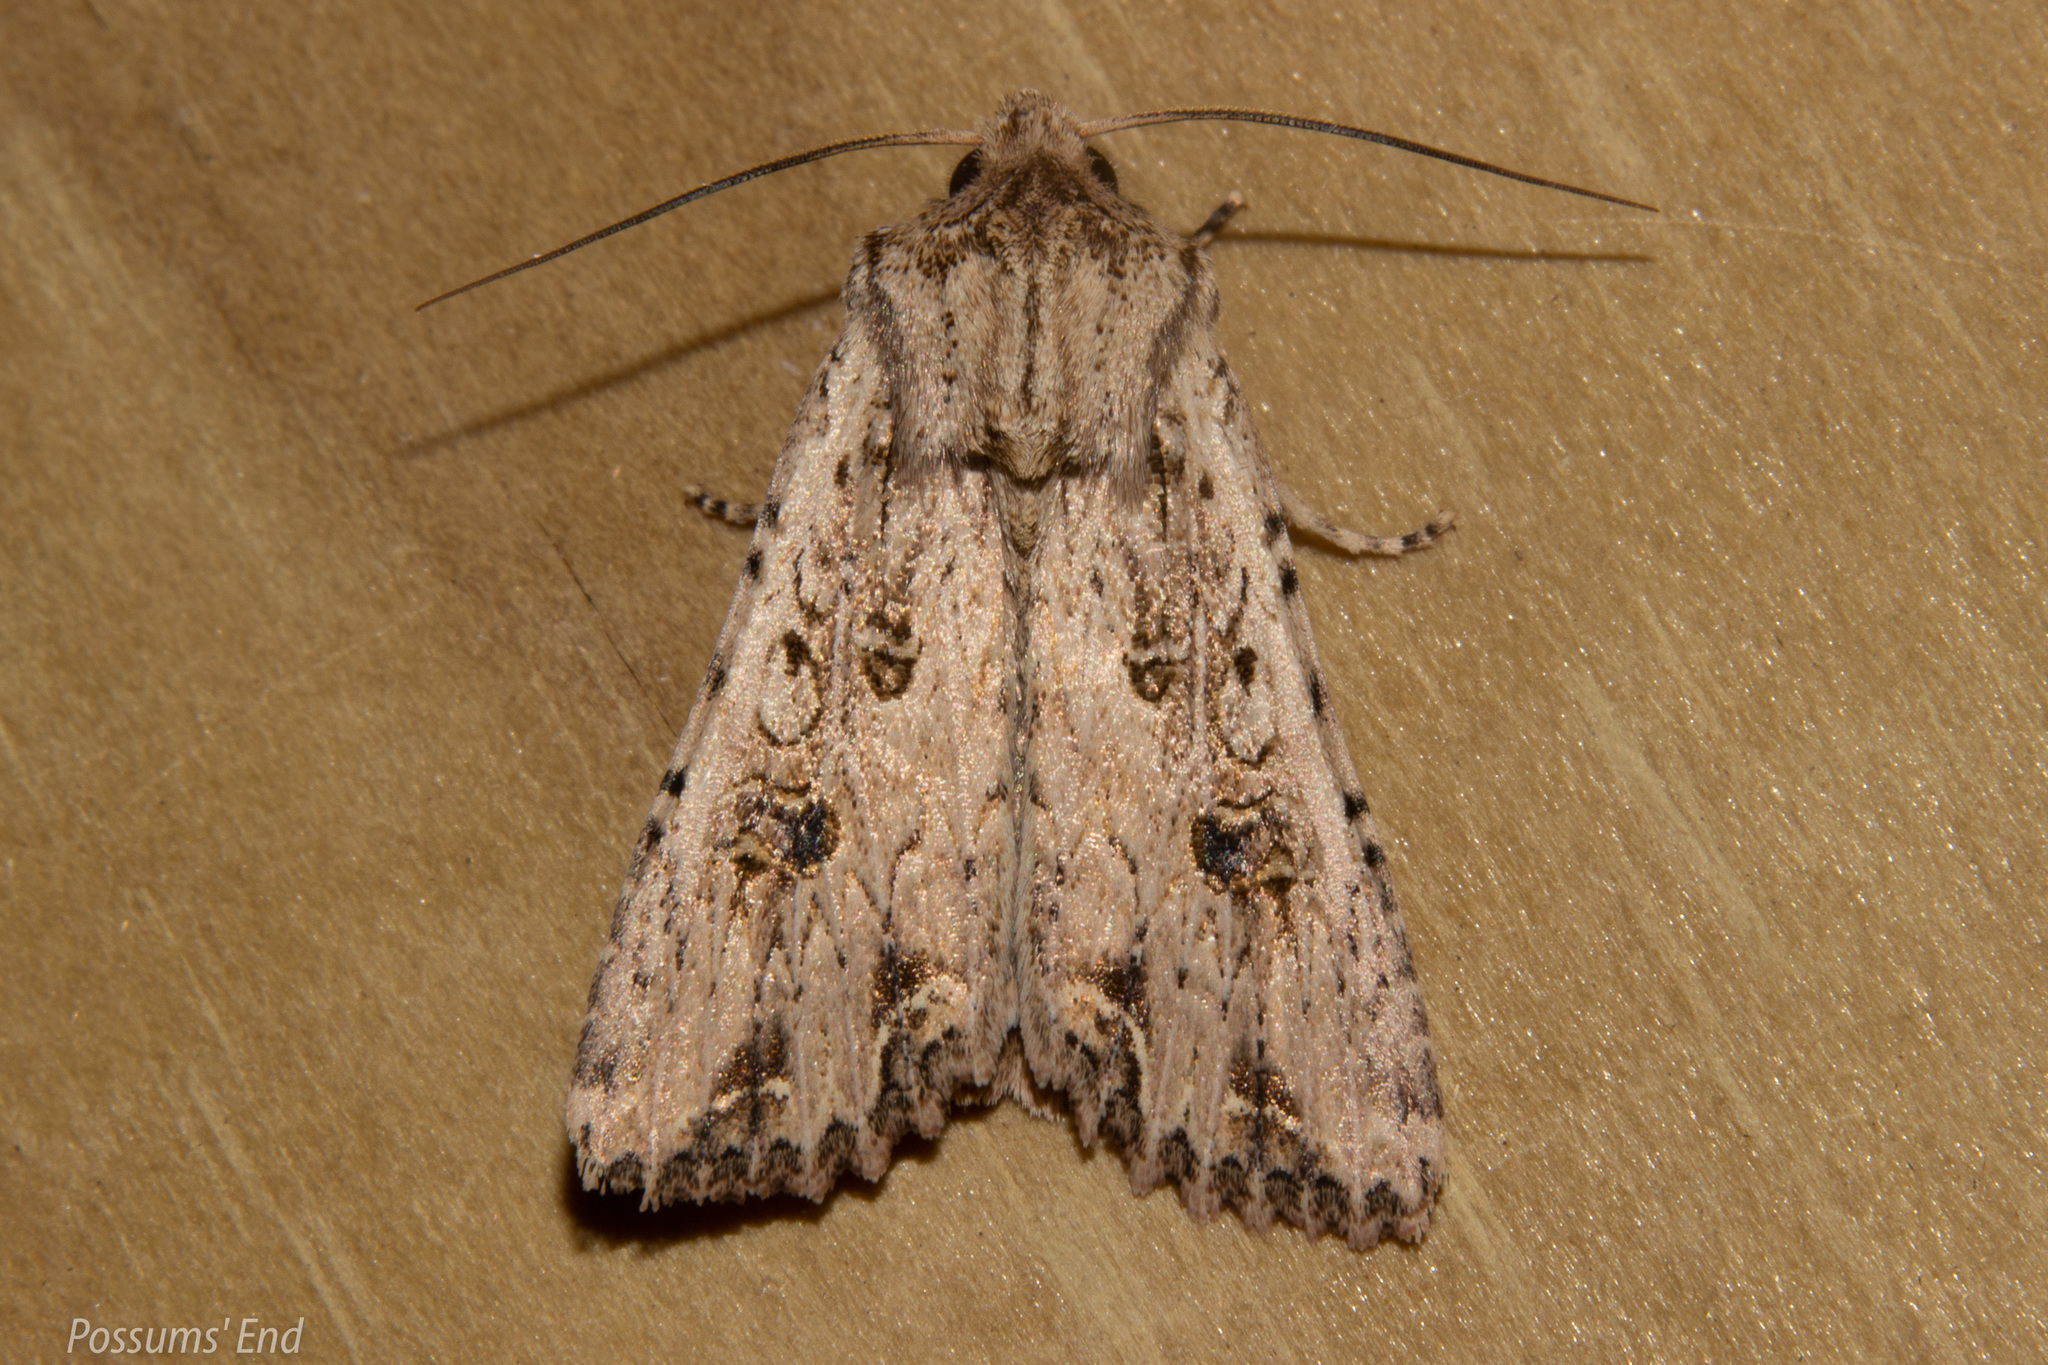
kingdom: Animalia
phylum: Arthropoda
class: Insecta
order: Lepidoptera
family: Noctuidae
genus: Ichneutica
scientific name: Ichneutica lignana
